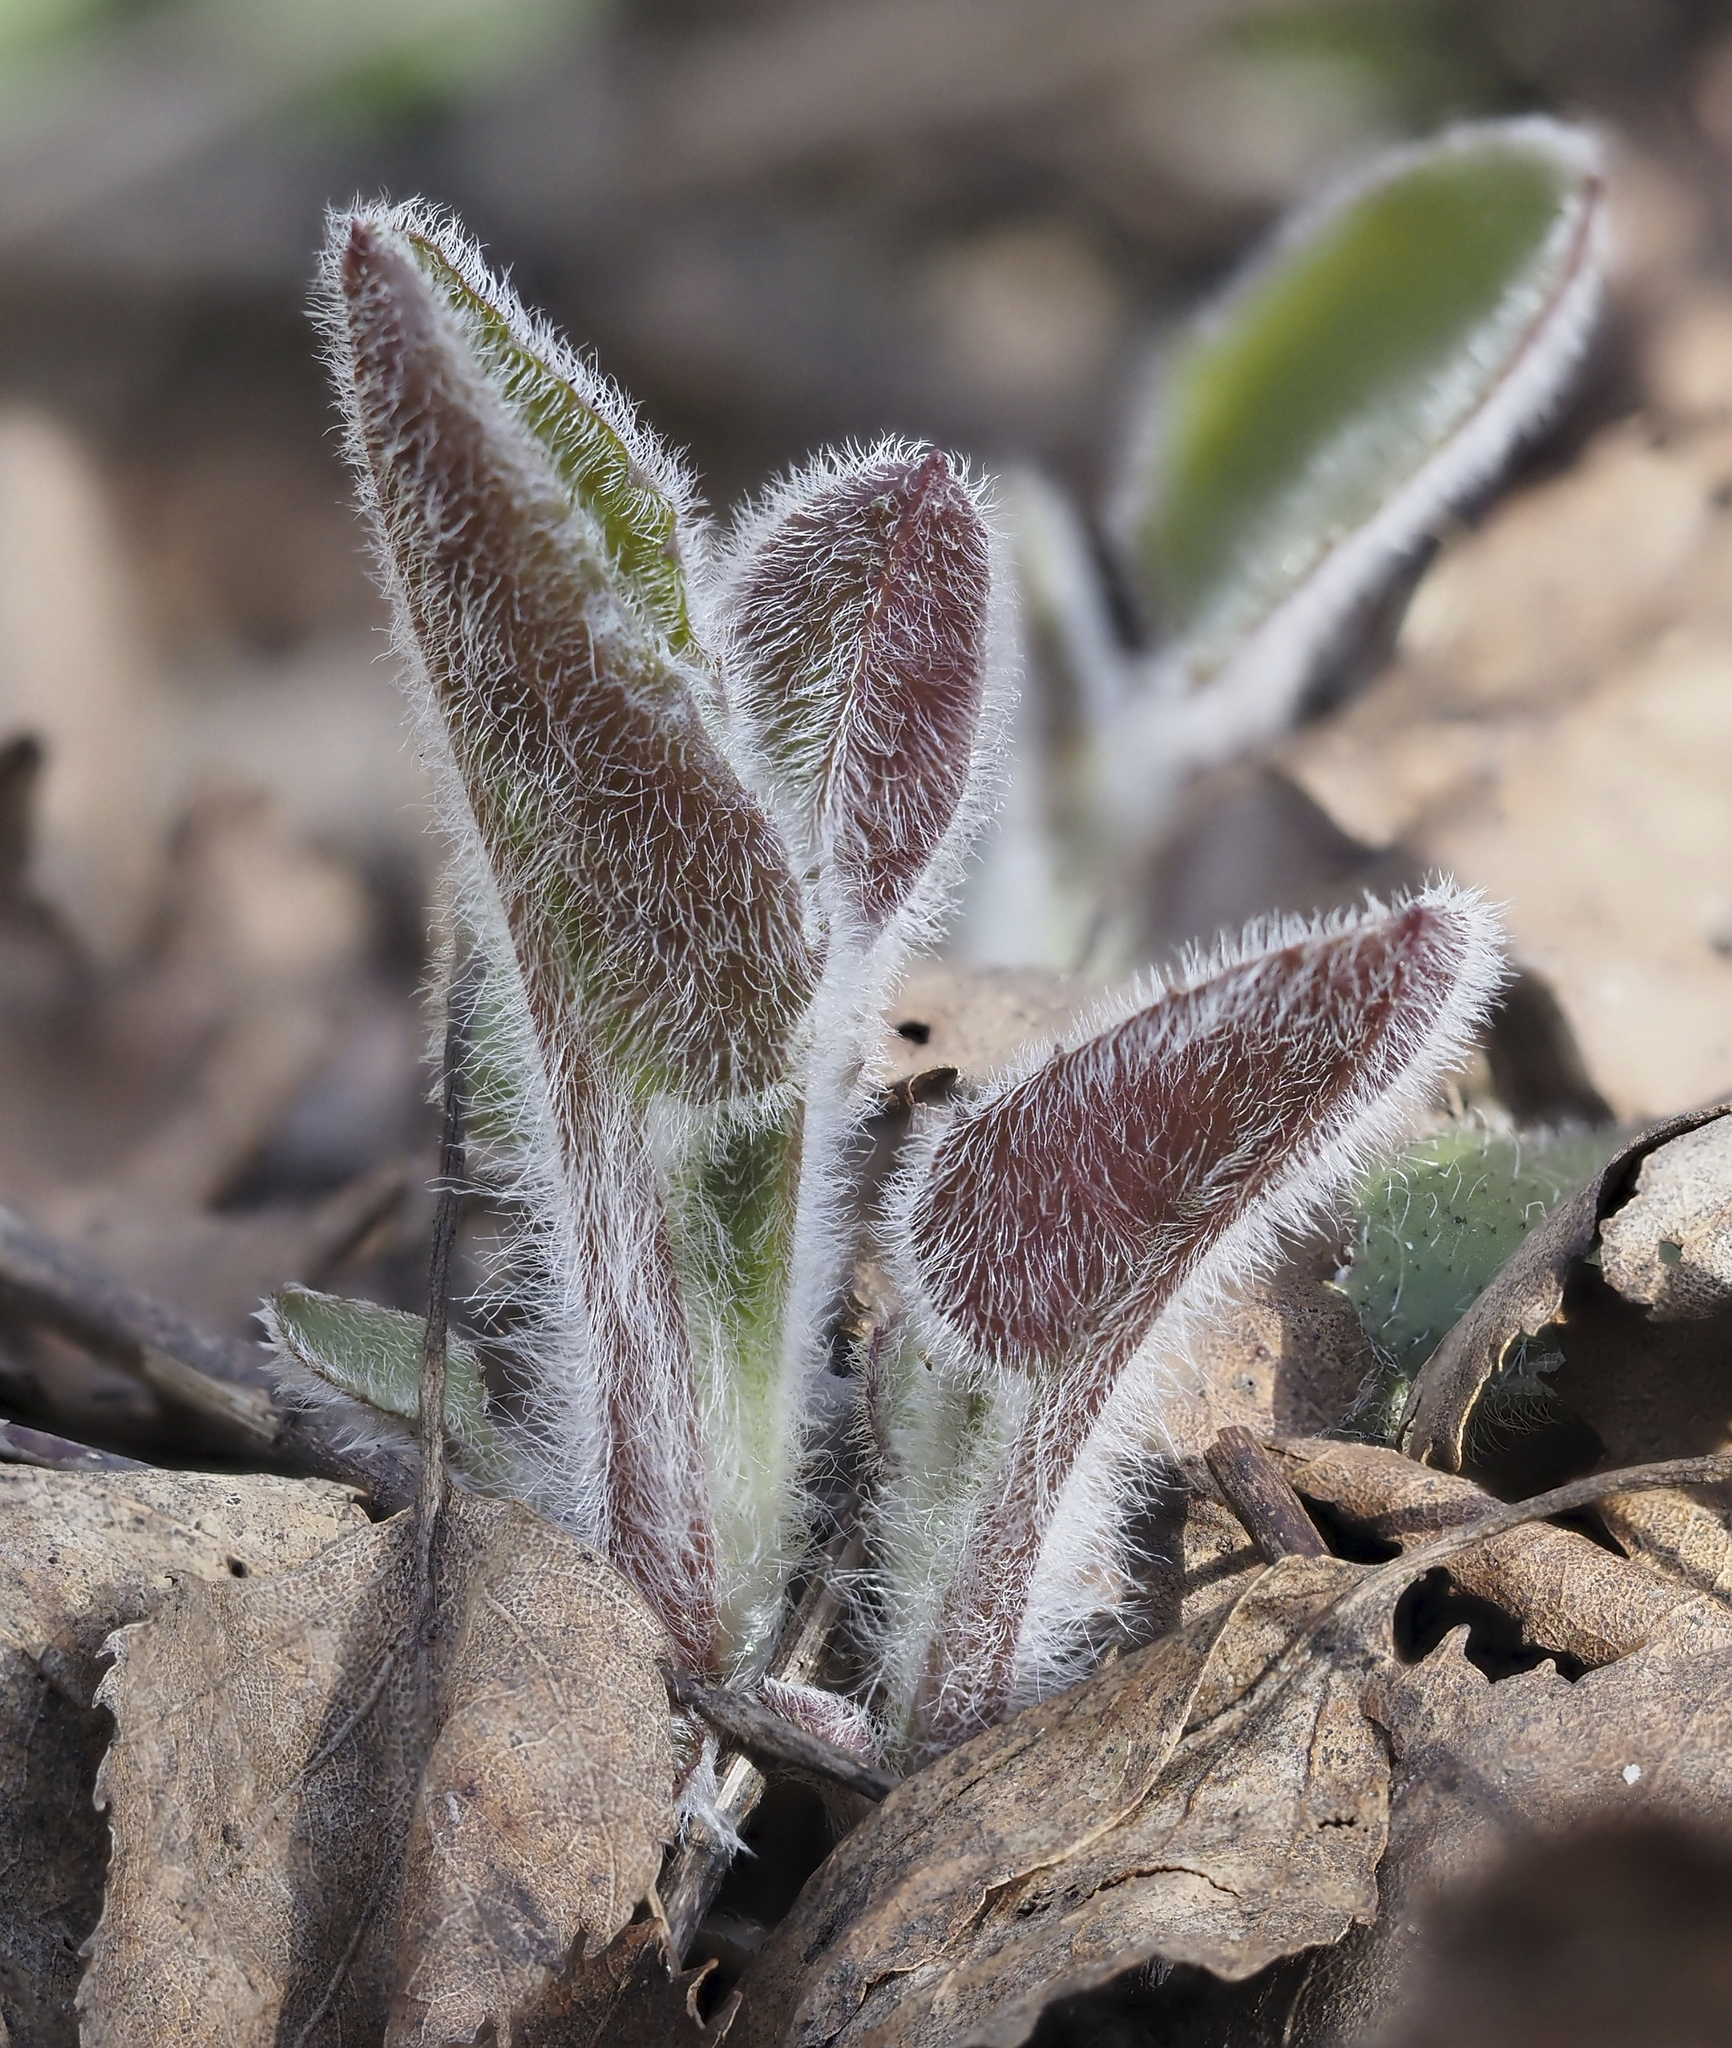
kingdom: Plantae
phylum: Tracheophyta
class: Magnoliopsida
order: Piperales
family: Aristolochiaceae
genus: Asarum
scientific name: Asarum europaeum
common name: Asarabacca
